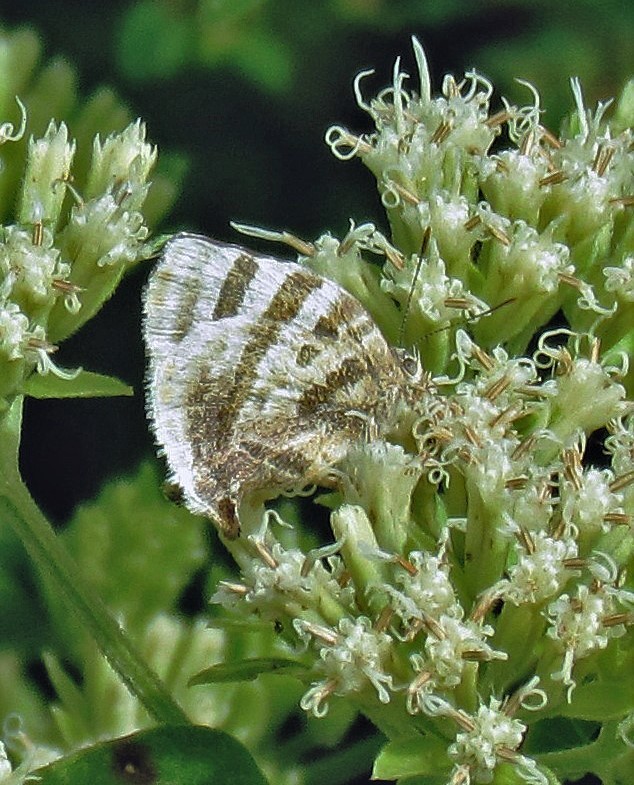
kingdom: Animalia
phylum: Arthropoda
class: Insecta
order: Lepidoptera
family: Lycaenidae
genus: Thecla
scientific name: Thecla dolylas
